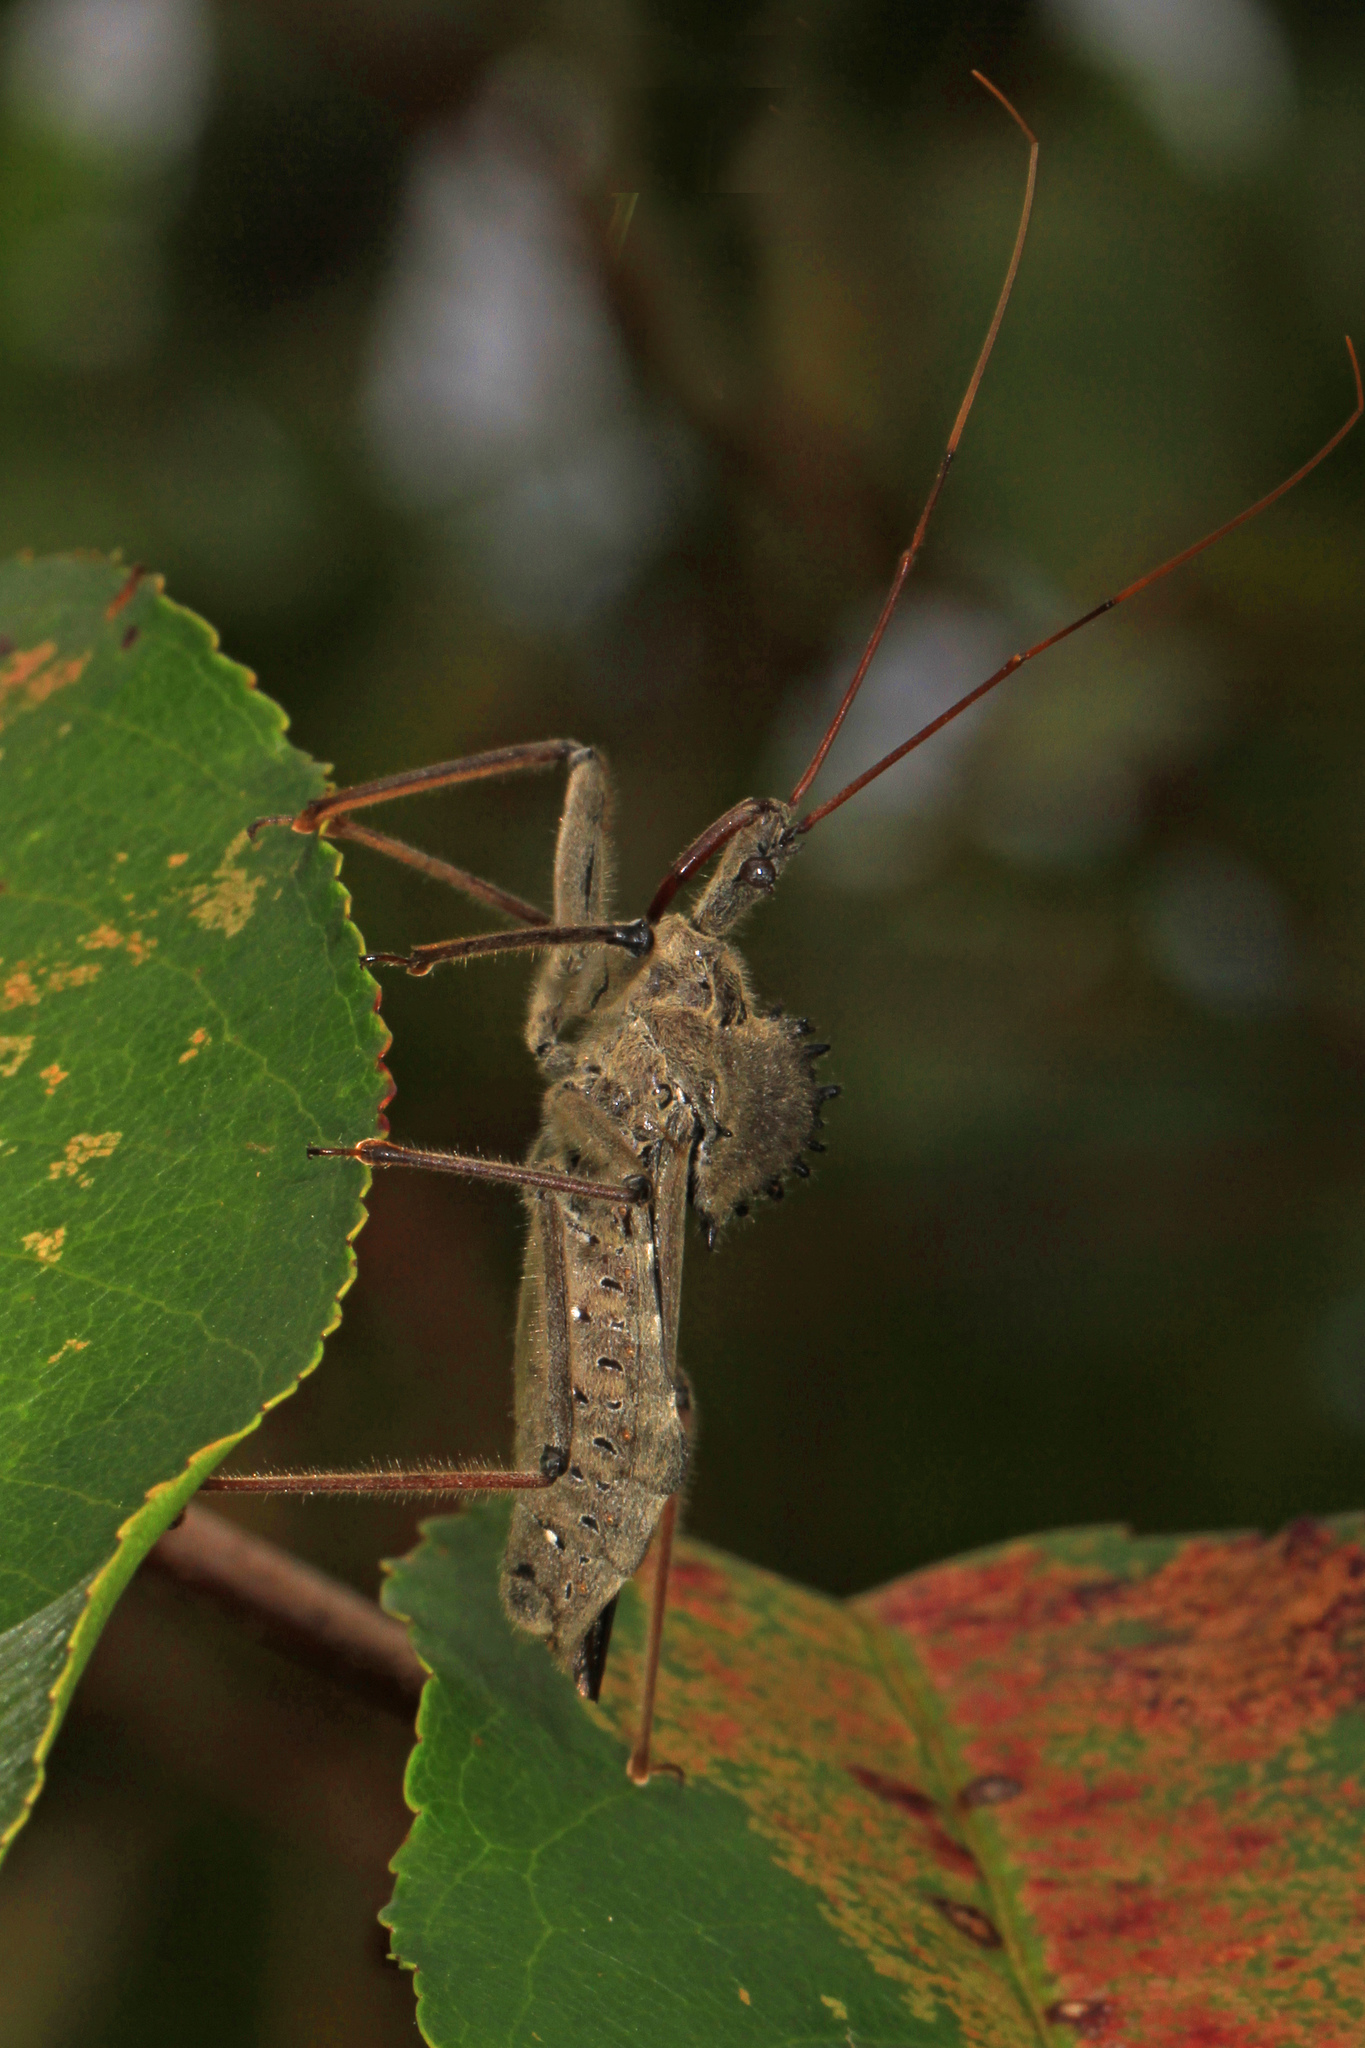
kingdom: Animalia
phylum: Arthropoda
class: Insecta
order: Hemiptera
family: Reduviidae
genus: Arilus
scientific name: Arilus cristatus
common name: North american wheel bug
